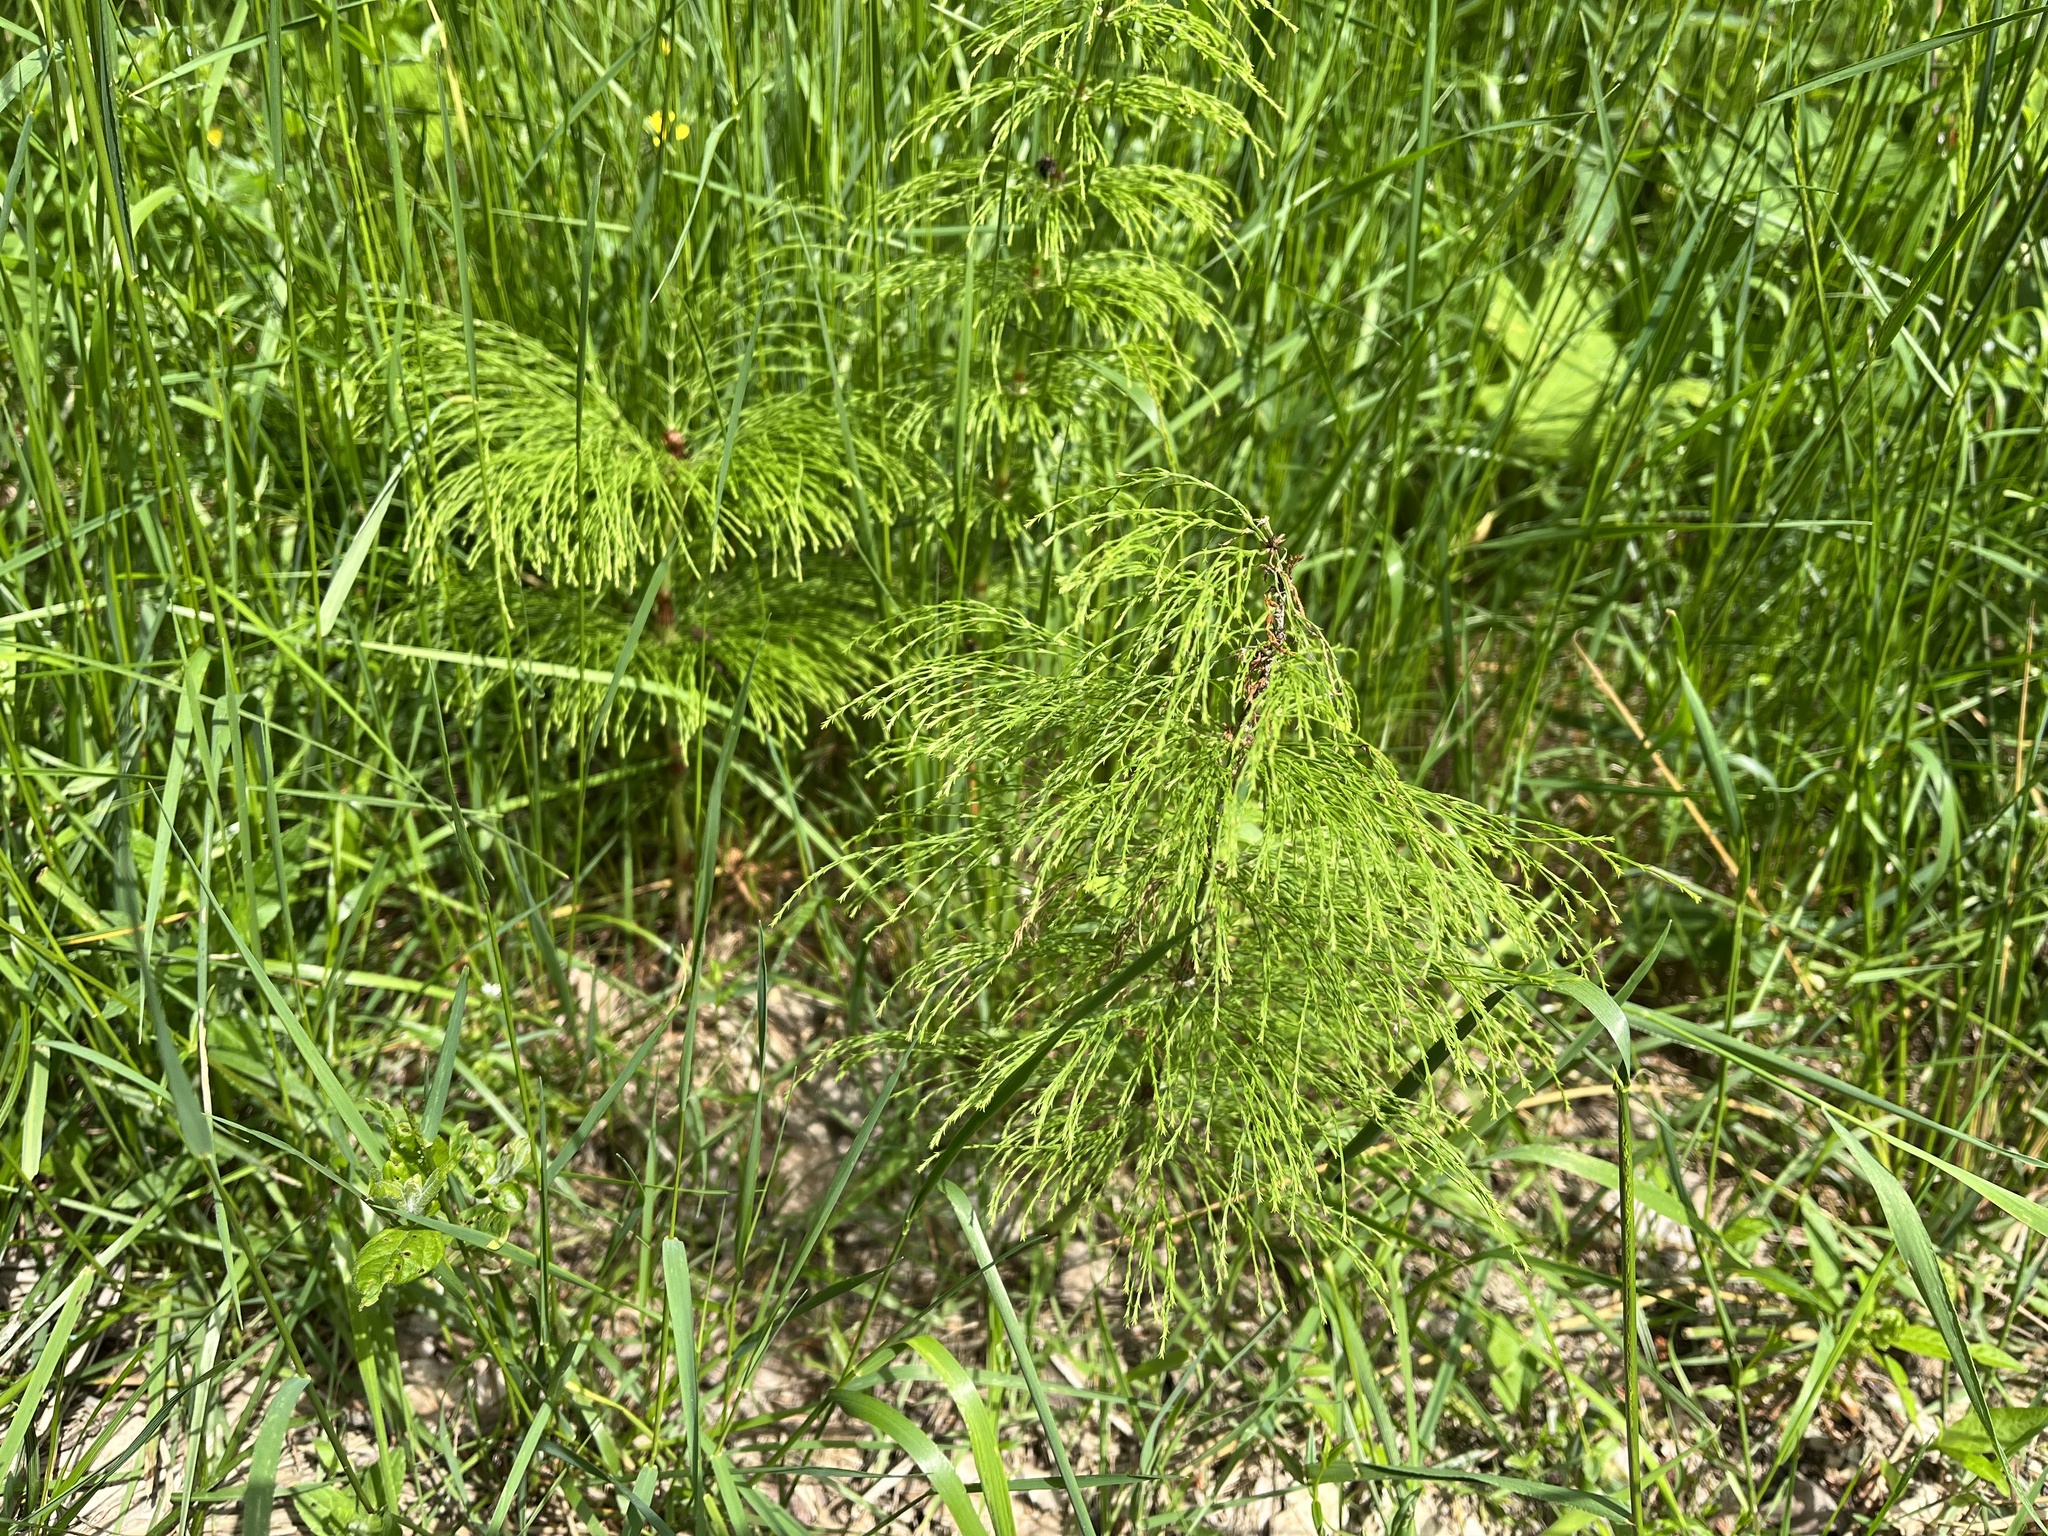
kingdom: Plantae
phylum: Tracheophyta
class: Polypodiopsida
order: Equisetales
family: Equisetaceae
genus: Equisetum
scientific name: Equisetum sylvaticum
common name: Wood horsetail
